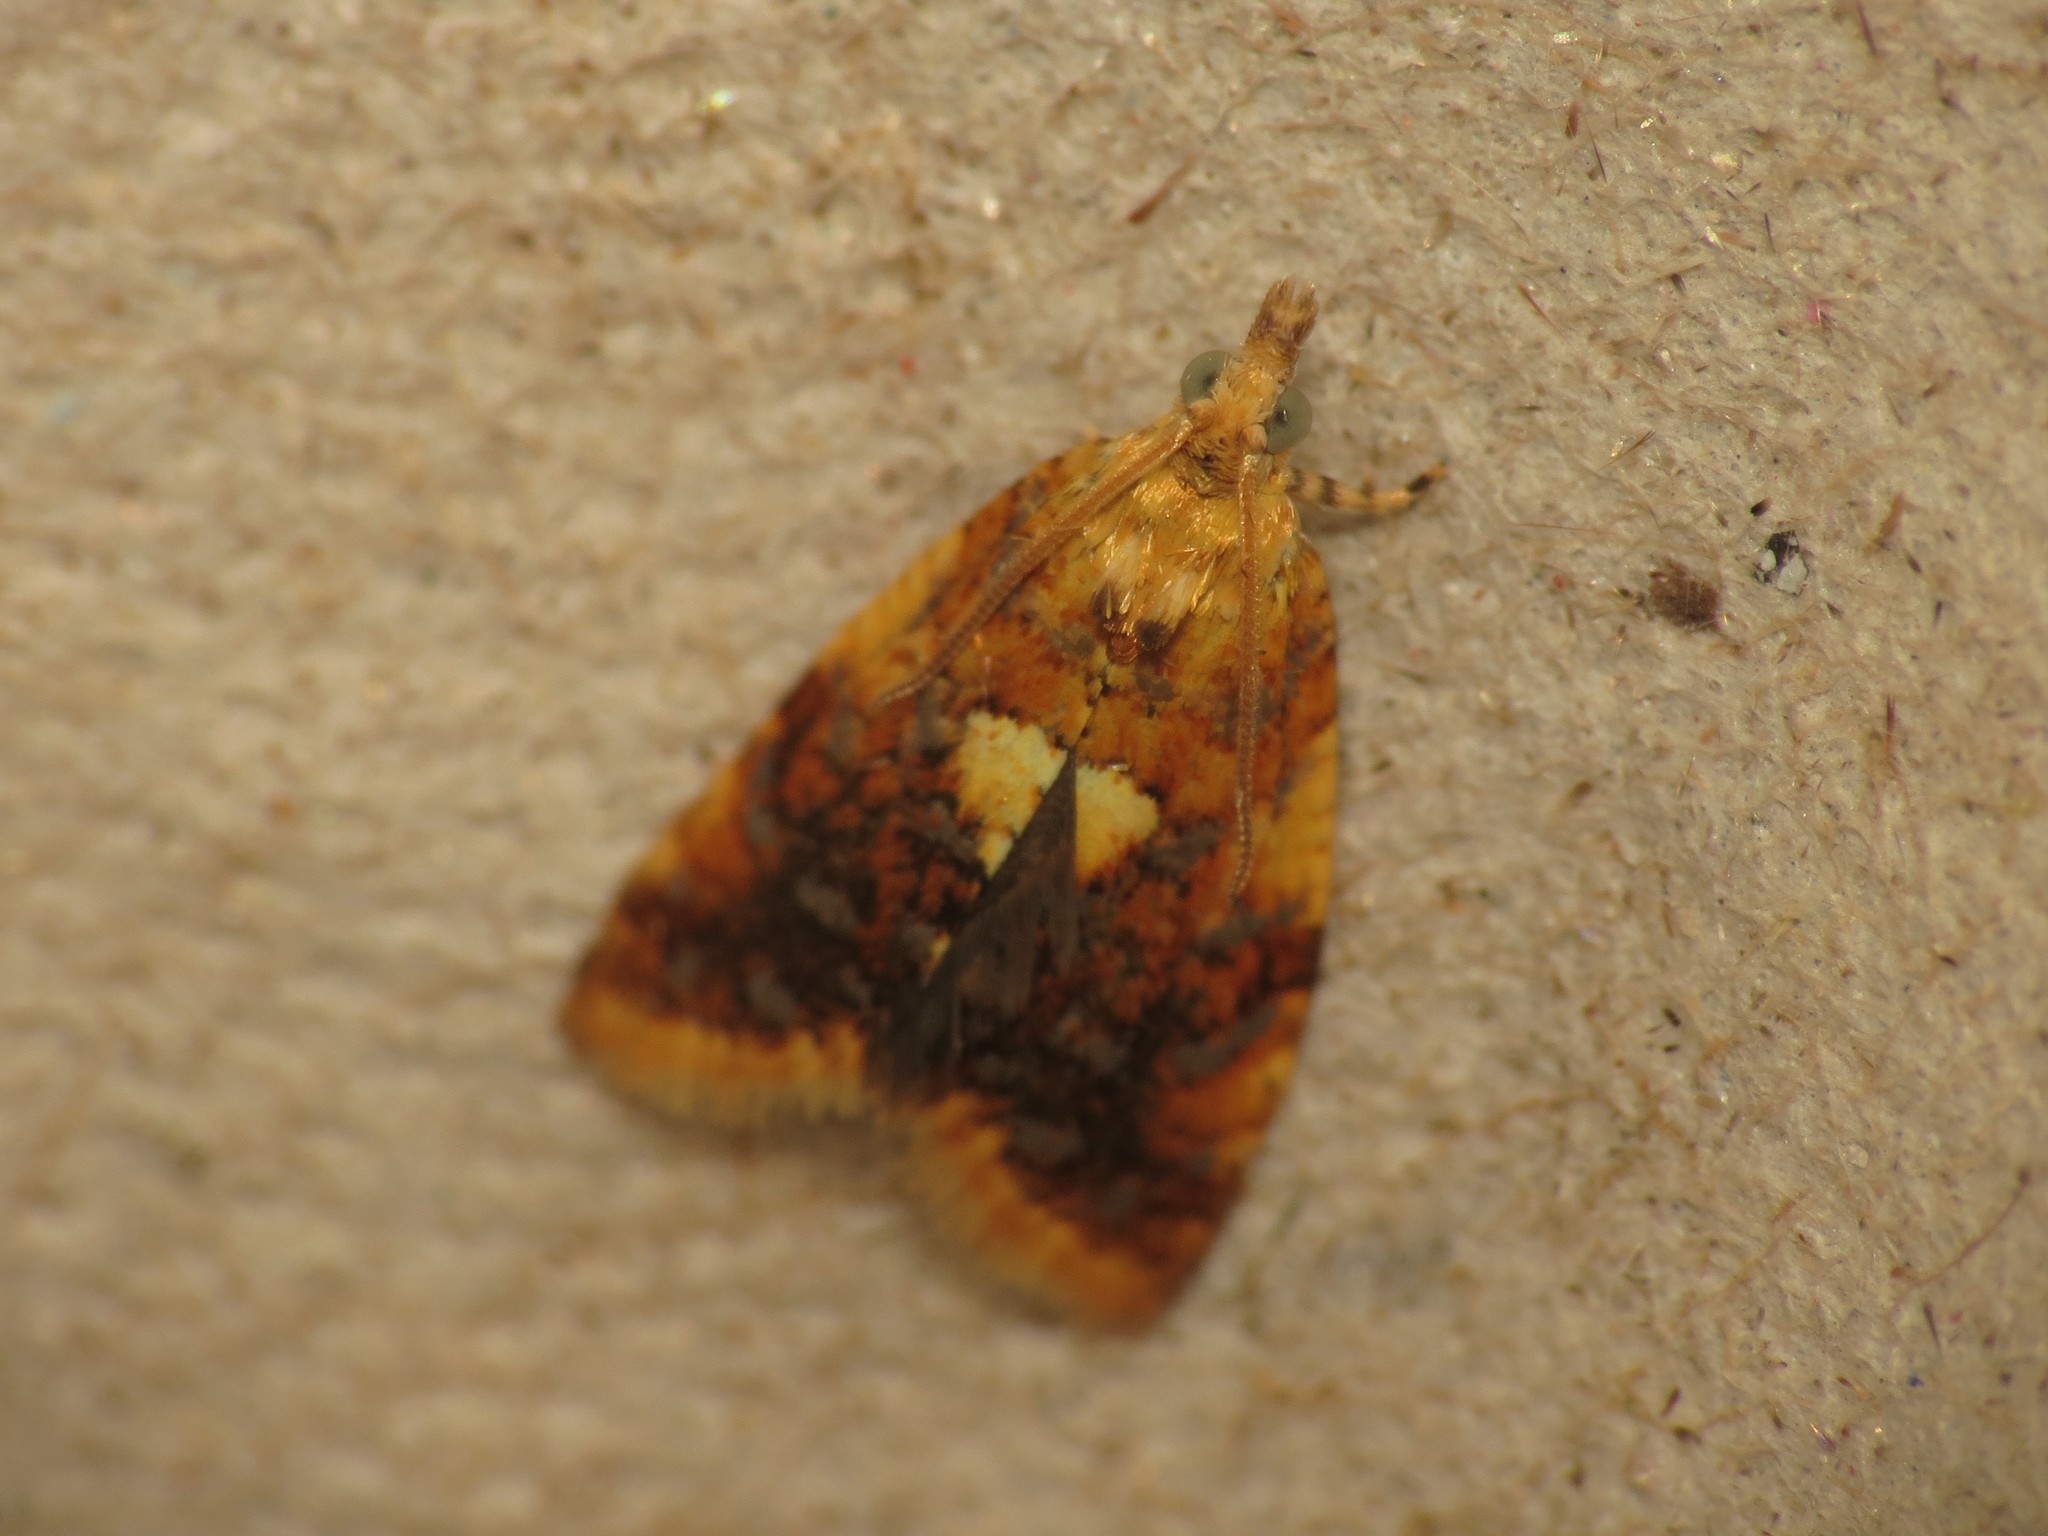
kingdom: Animalia
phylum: Arthropoda
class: Insecta
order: Lepidoptera
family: Tortricidae
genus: Pseudargyrotoza
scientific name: Pseudargyrotoza conwagana
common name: Yellow-spot twist
